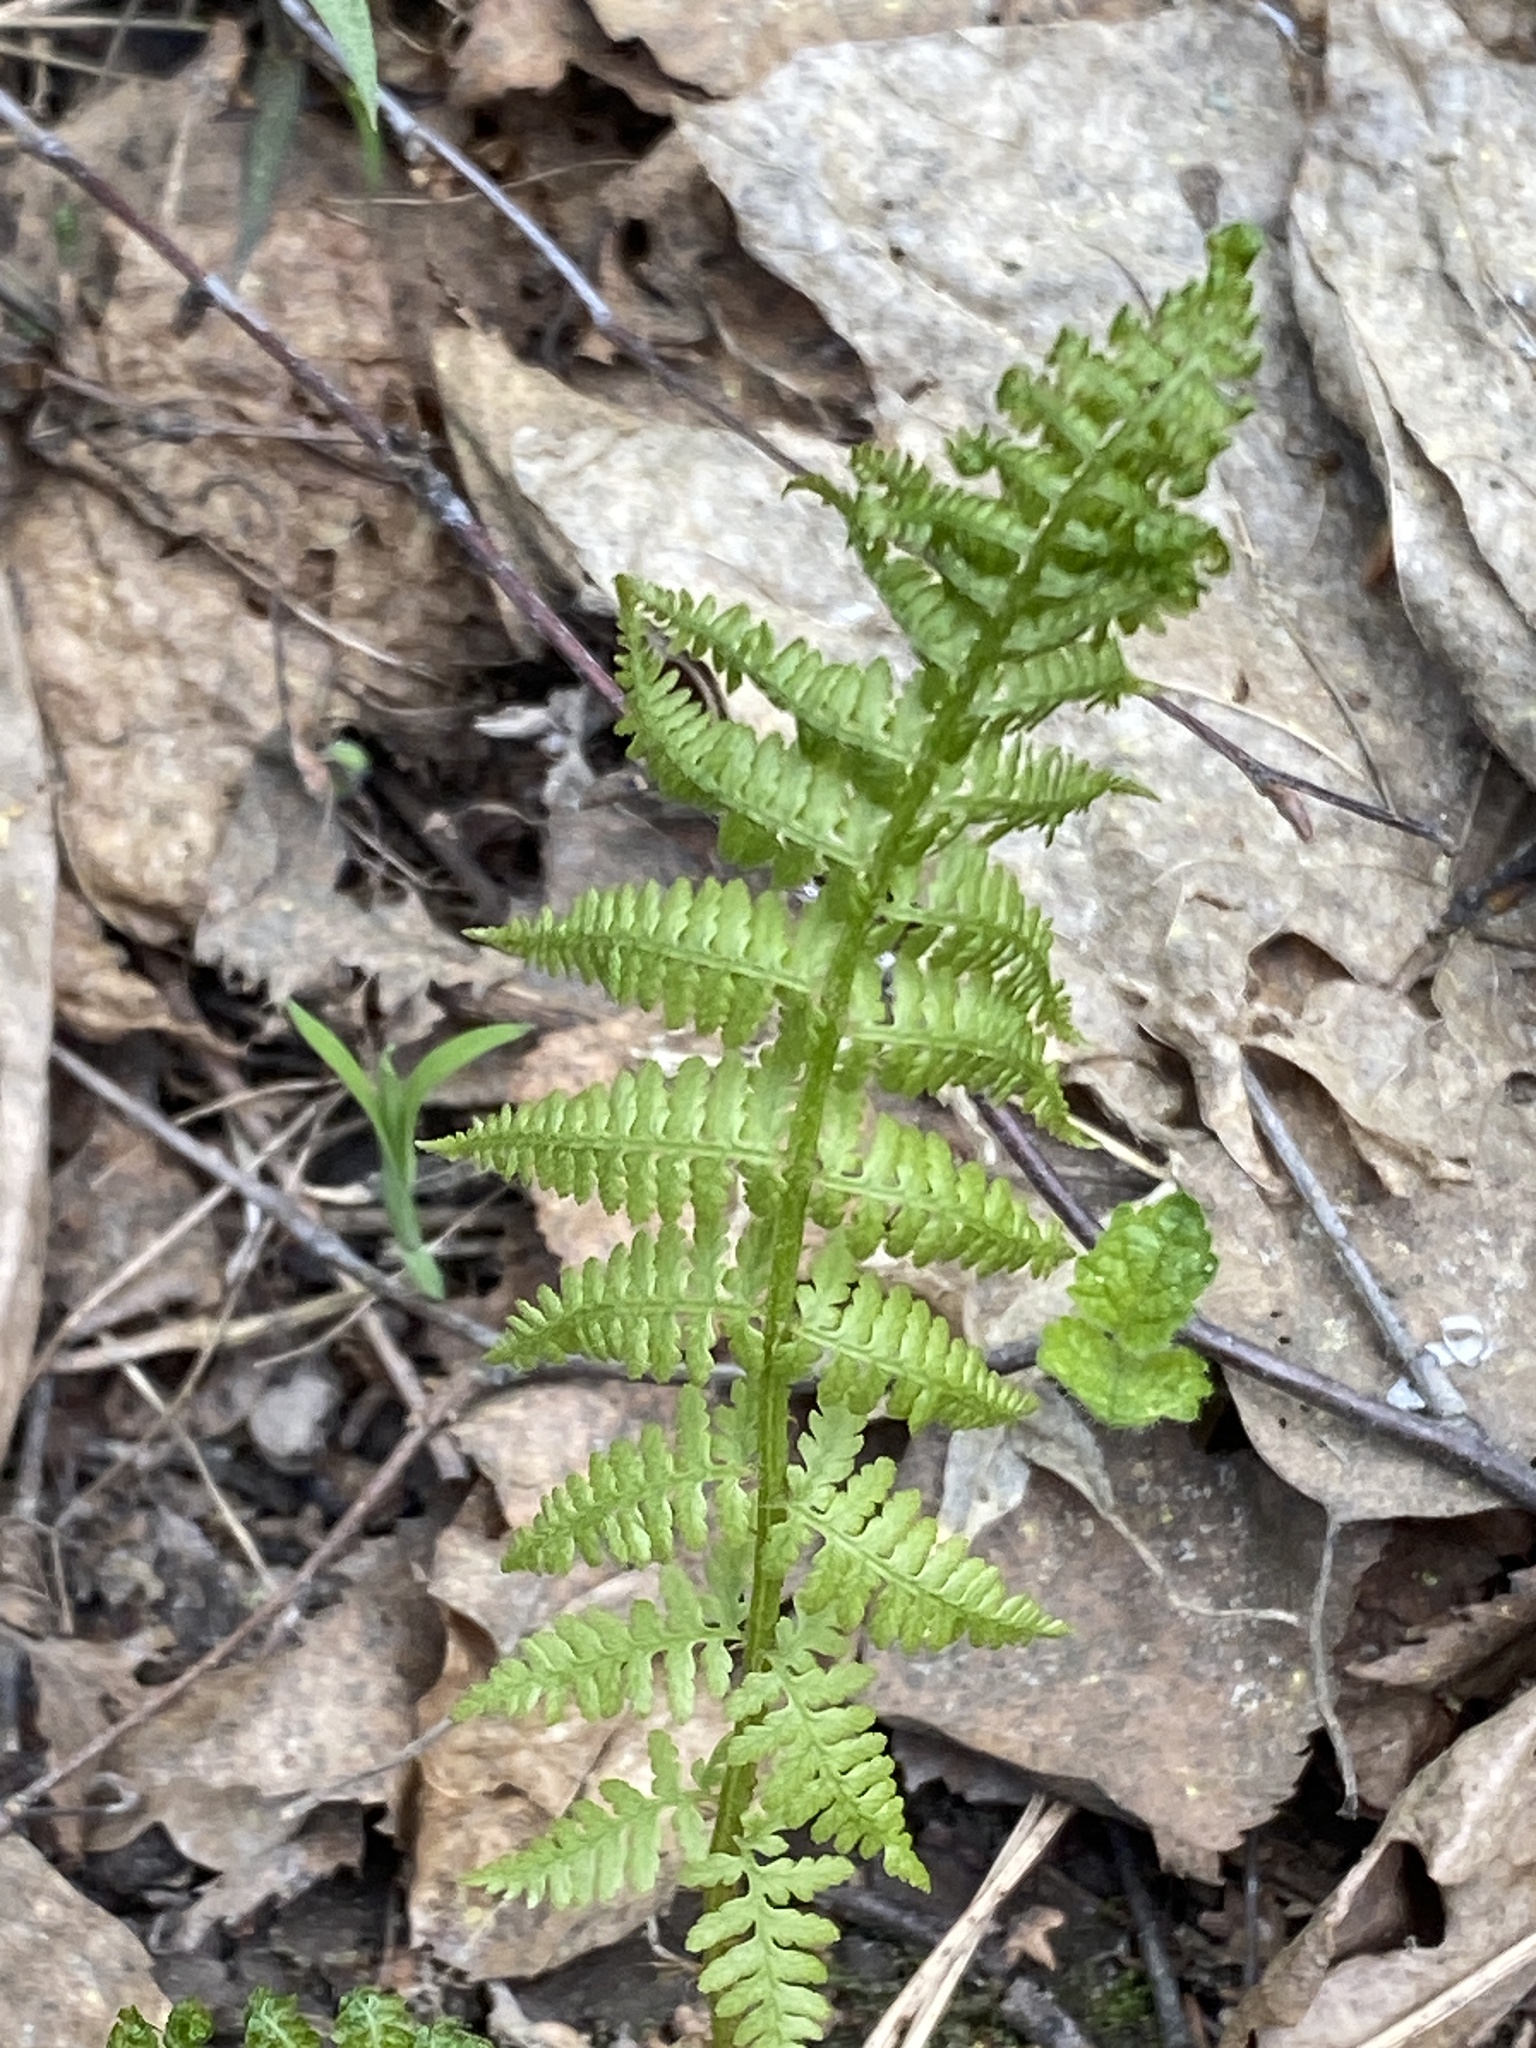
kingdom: Plantae
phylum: Tracheophyta
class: Polypodiopsida
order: Polypodiales
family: Athyriaceae
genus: Athyrium
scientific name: Athyrium filix-femina
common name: Lady fern
